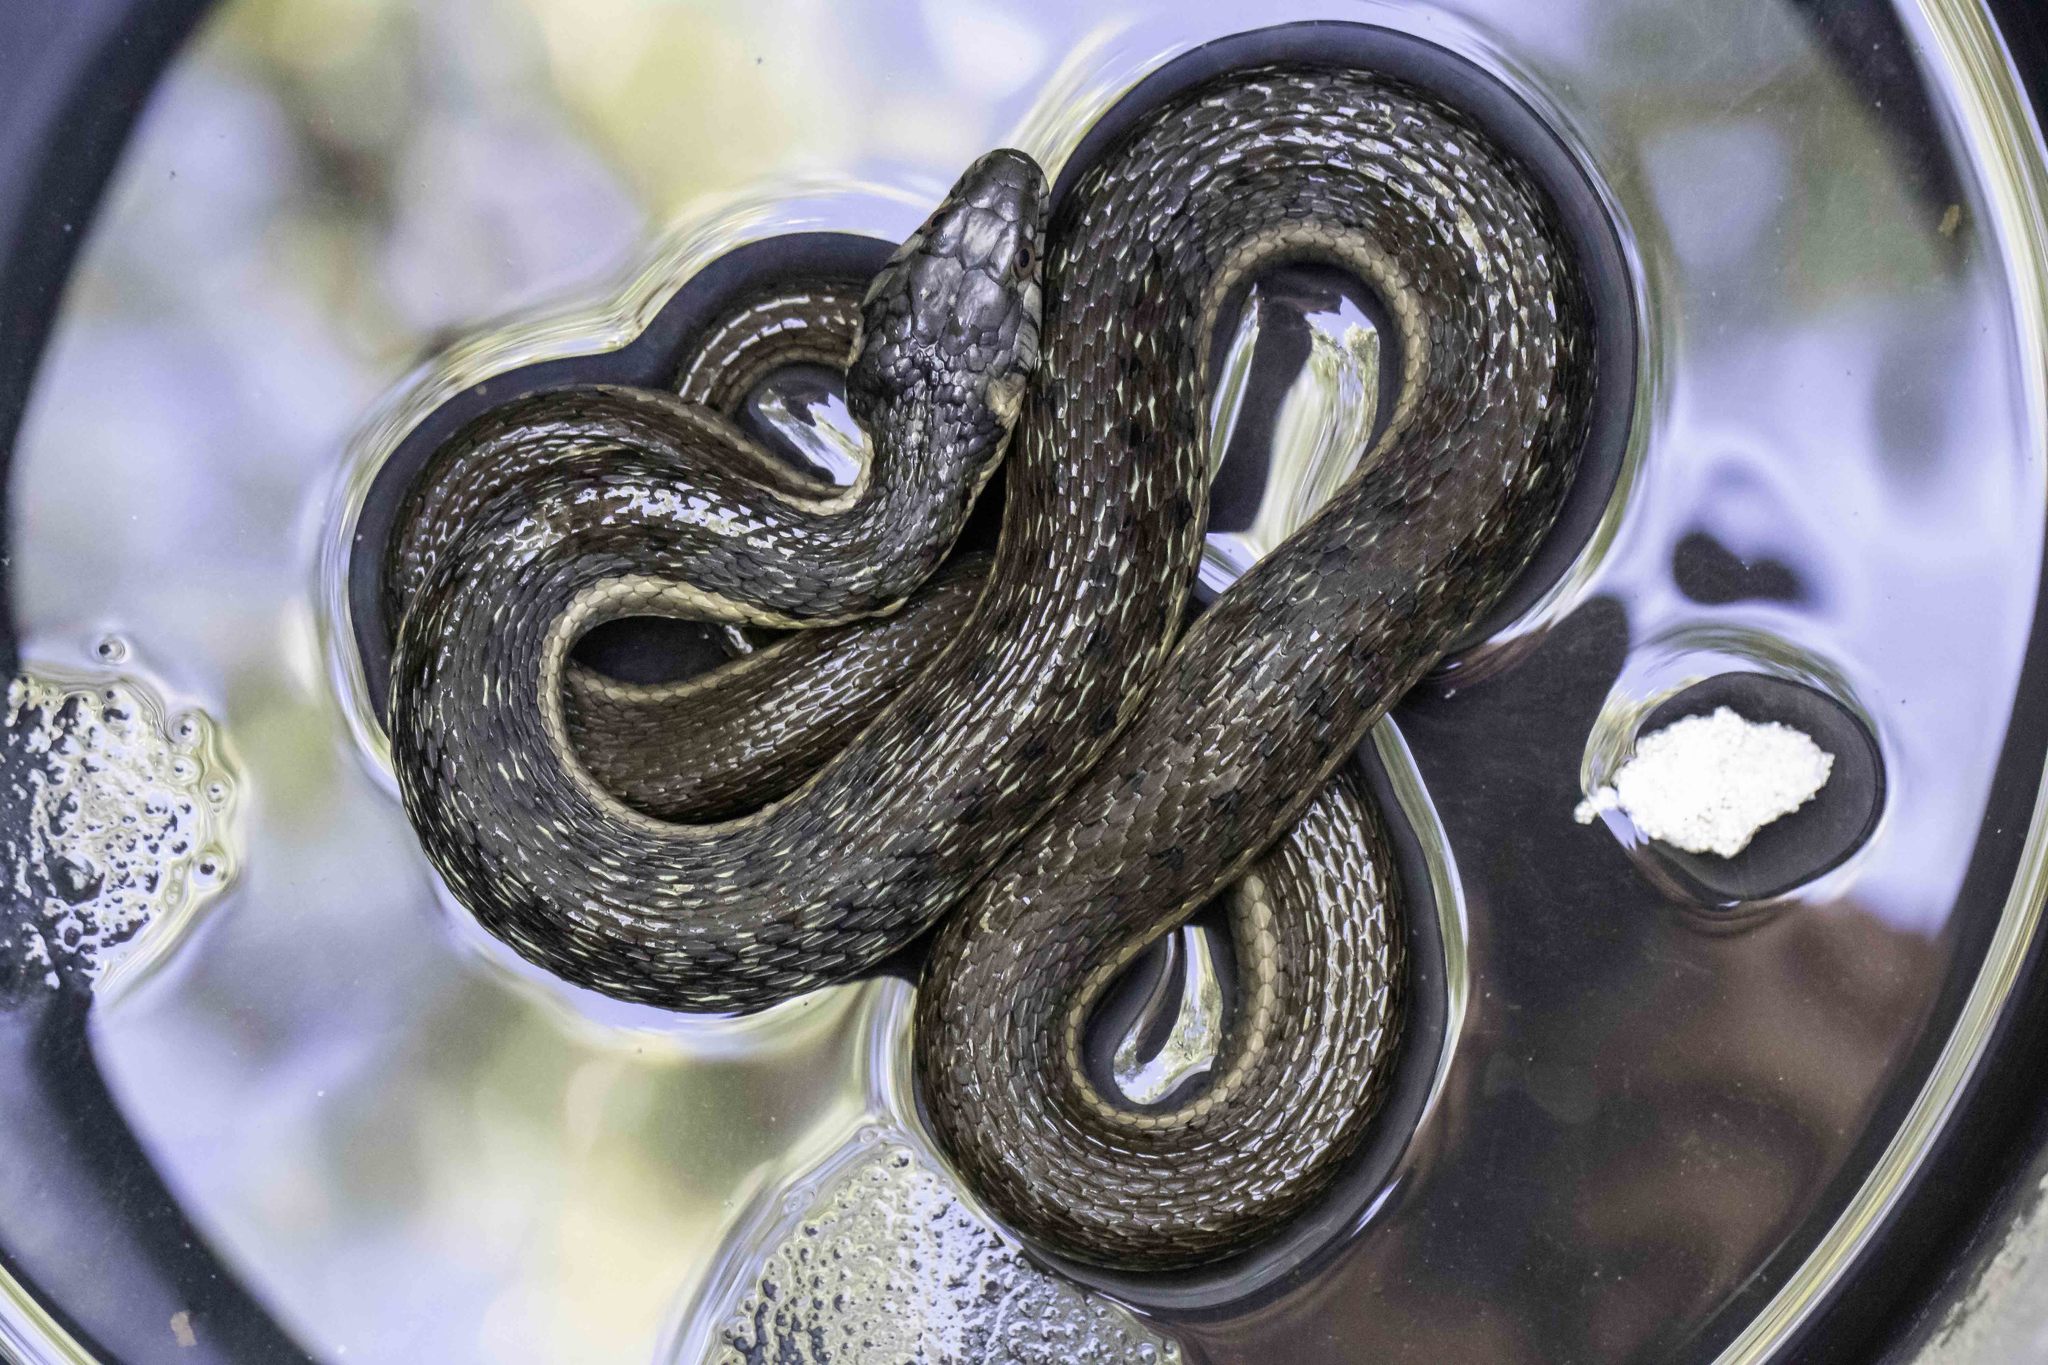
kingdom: Animalia
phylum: Chordata
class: Squamata
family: Colubridae
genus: Thamnophis
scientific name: Thamnophis hammondii
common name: Two-striped garter snake
